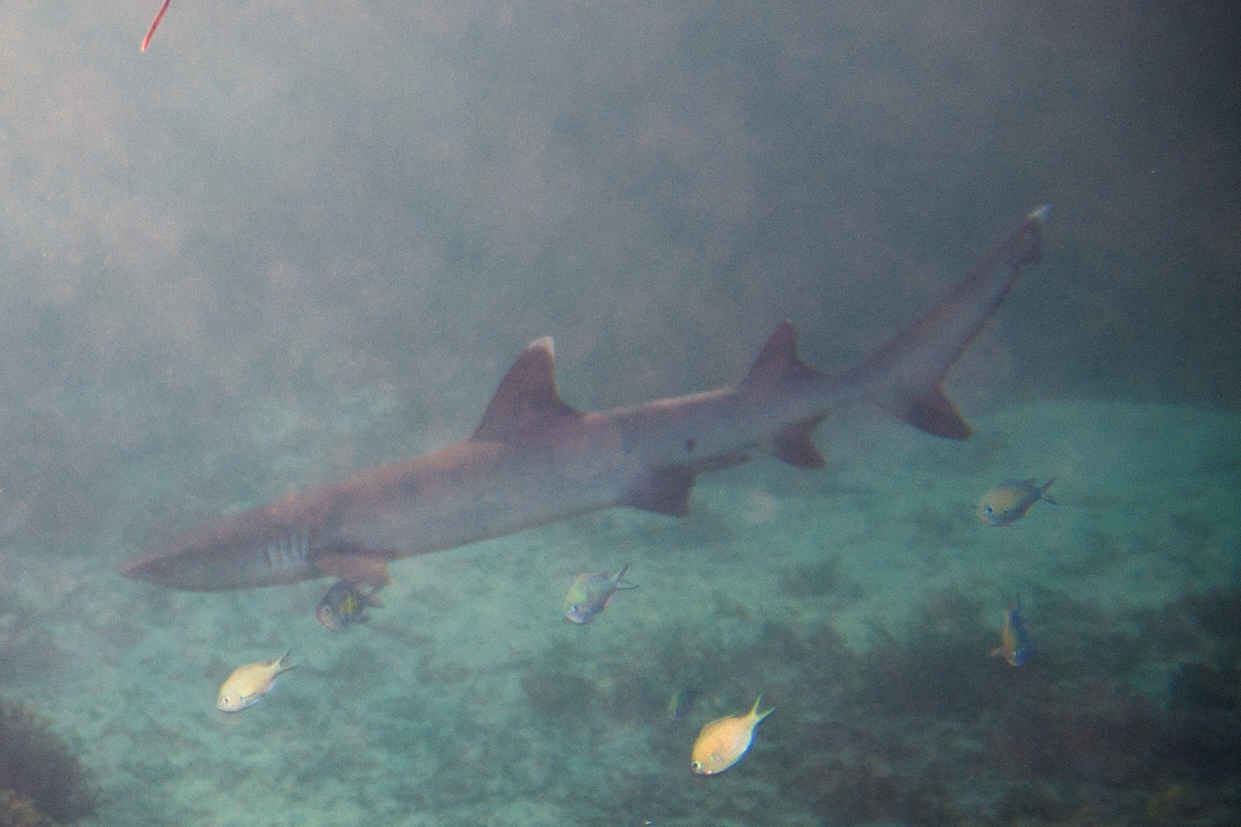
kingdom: Animalia
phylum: Chordata
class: Elasmobranchii
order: Carcharhiniformes
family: Carcharhinidae
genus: Triaenodon
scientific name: Triaenodon obesus
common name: Whitetip reef shark
